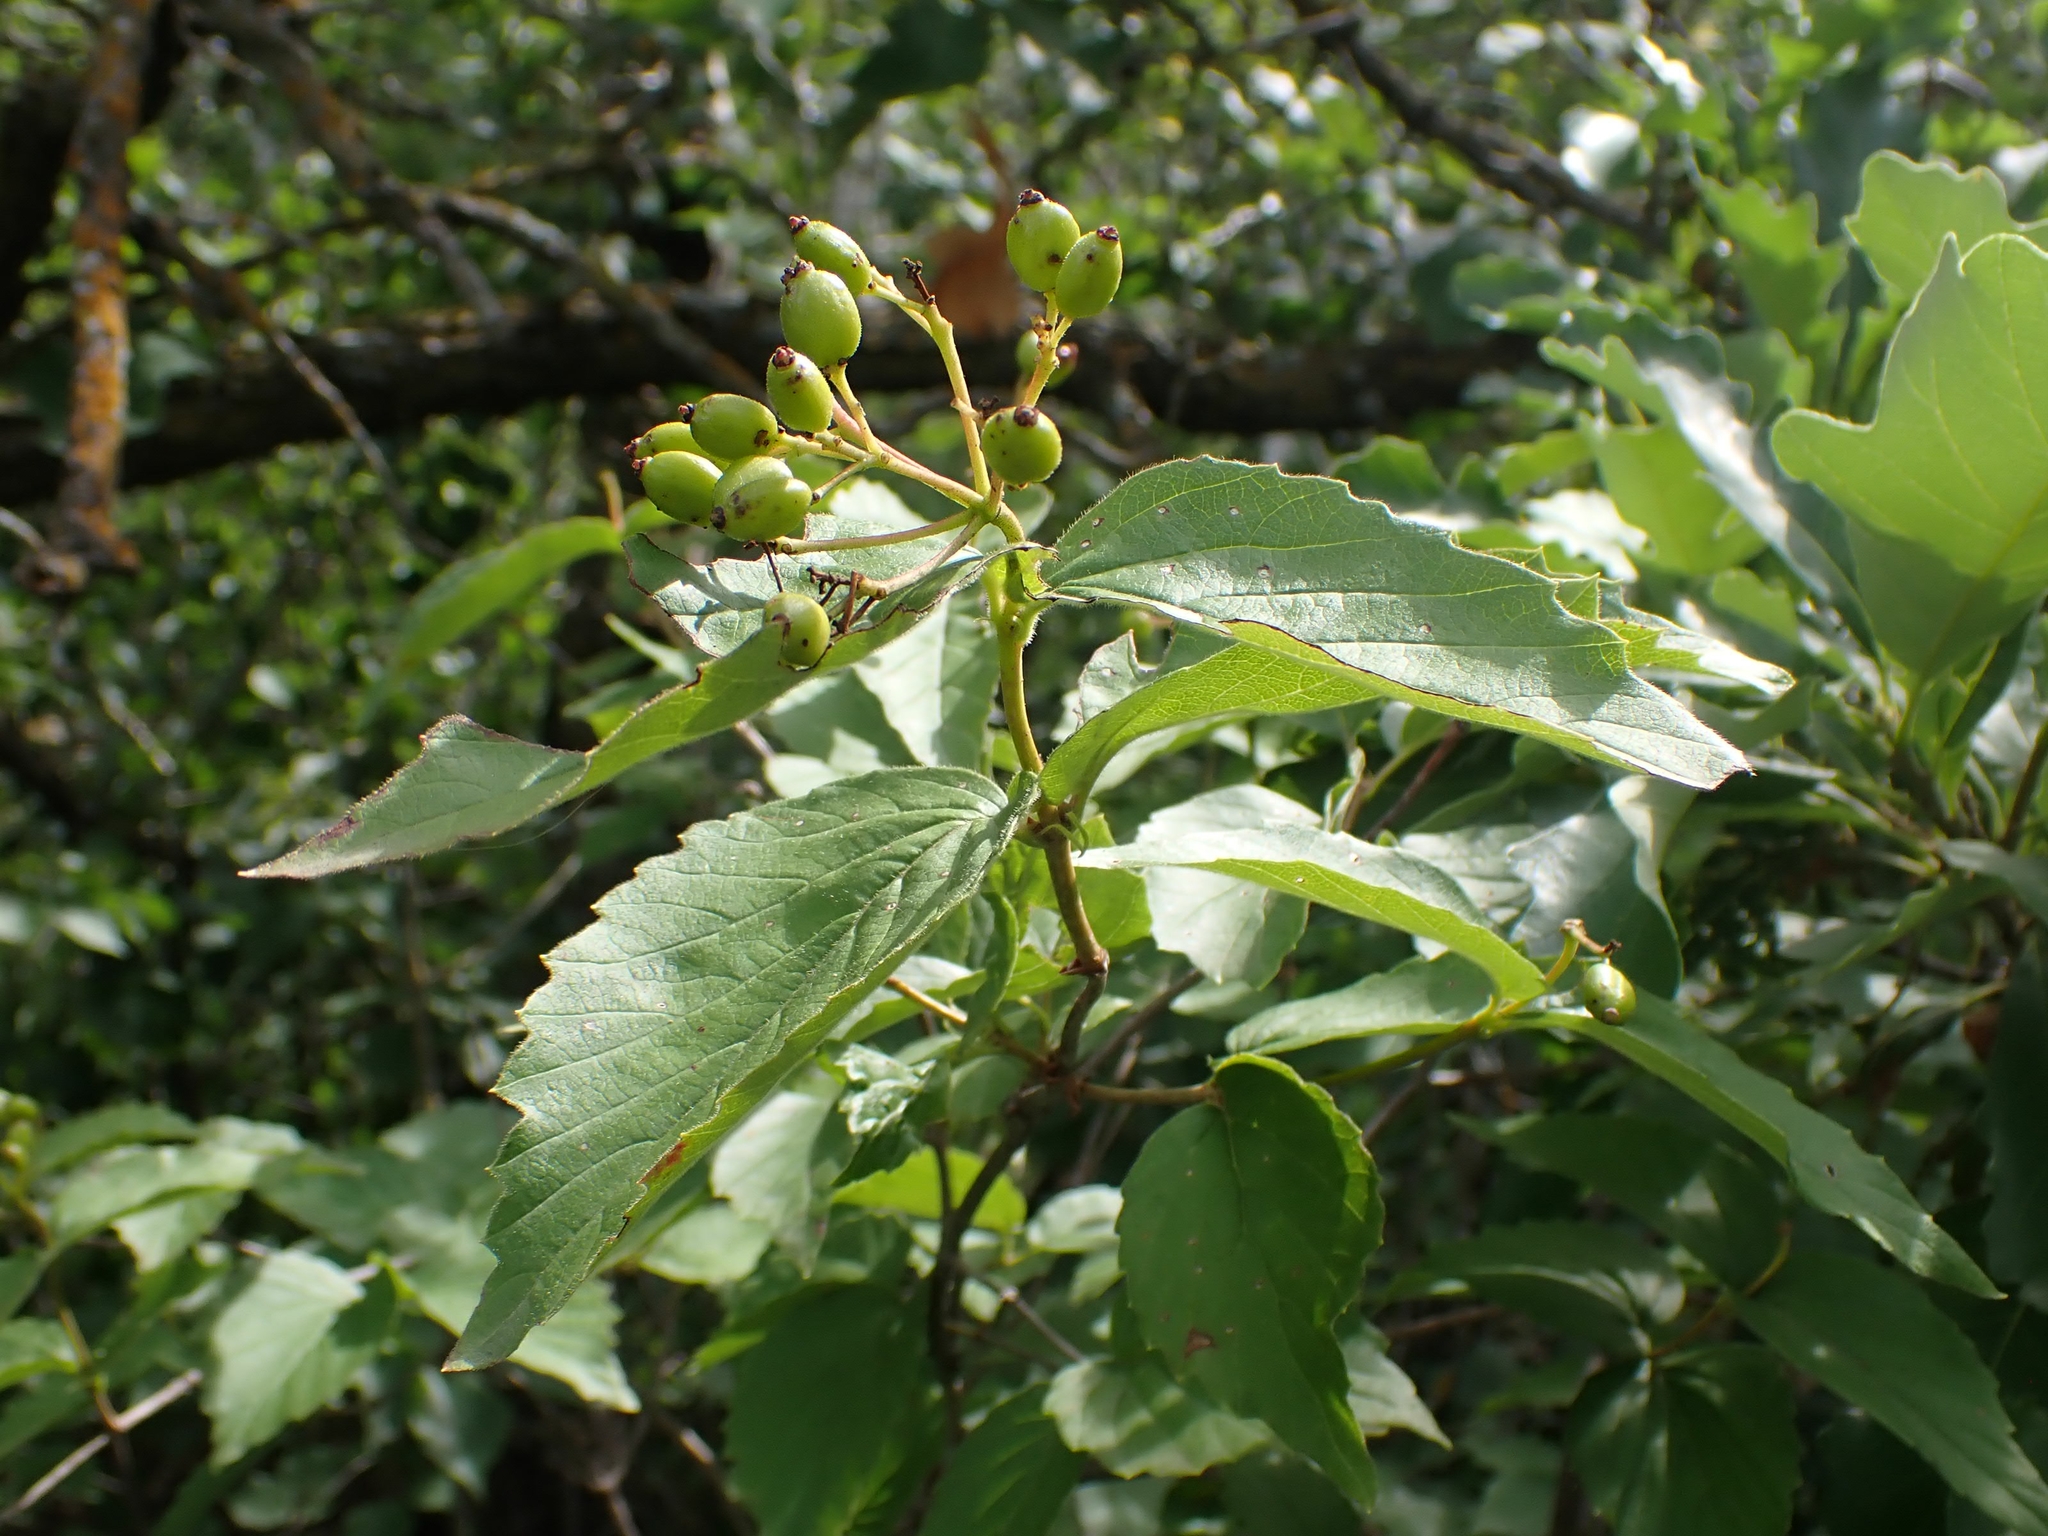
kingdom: Plantae
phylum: Tracheophyta
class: Magnoliopsida
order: Dipsacales
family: Viburnaceae
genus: Viburnum
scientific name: Viburnum rafinesqueanum
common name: Downy arrow-wood
